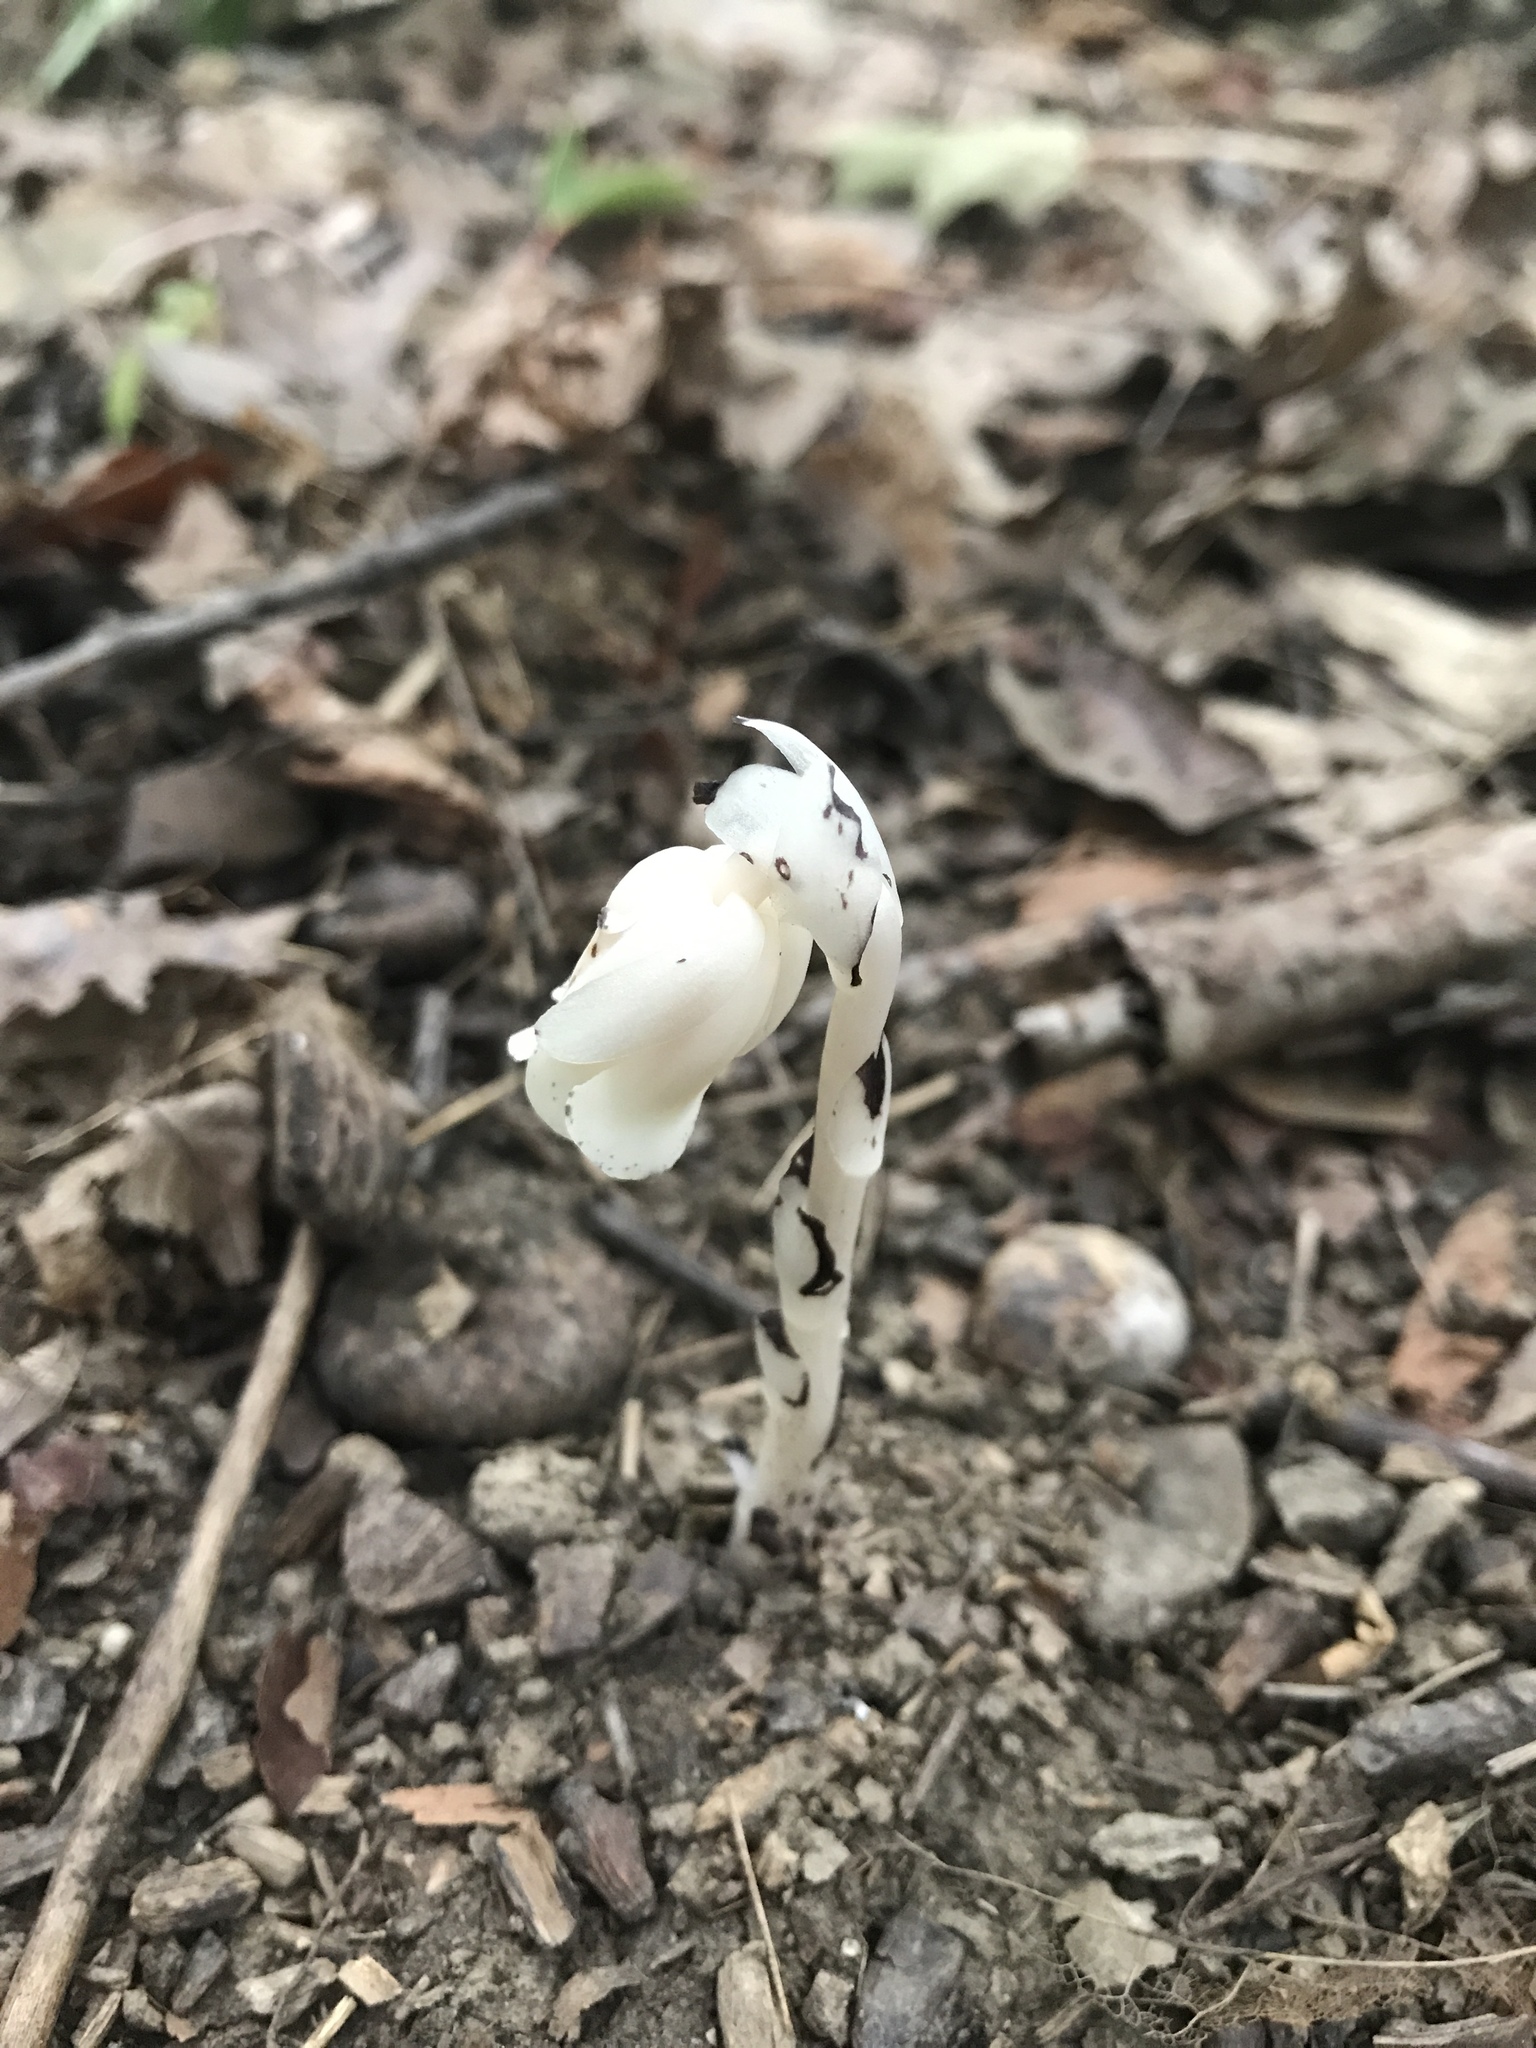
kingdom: Plantae
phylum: Tracheophyta
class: Magnoliopsida
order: Ericales
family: Ericaceae
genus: Monotropa
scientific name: Monotropa uniflora
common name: Convulsion root
